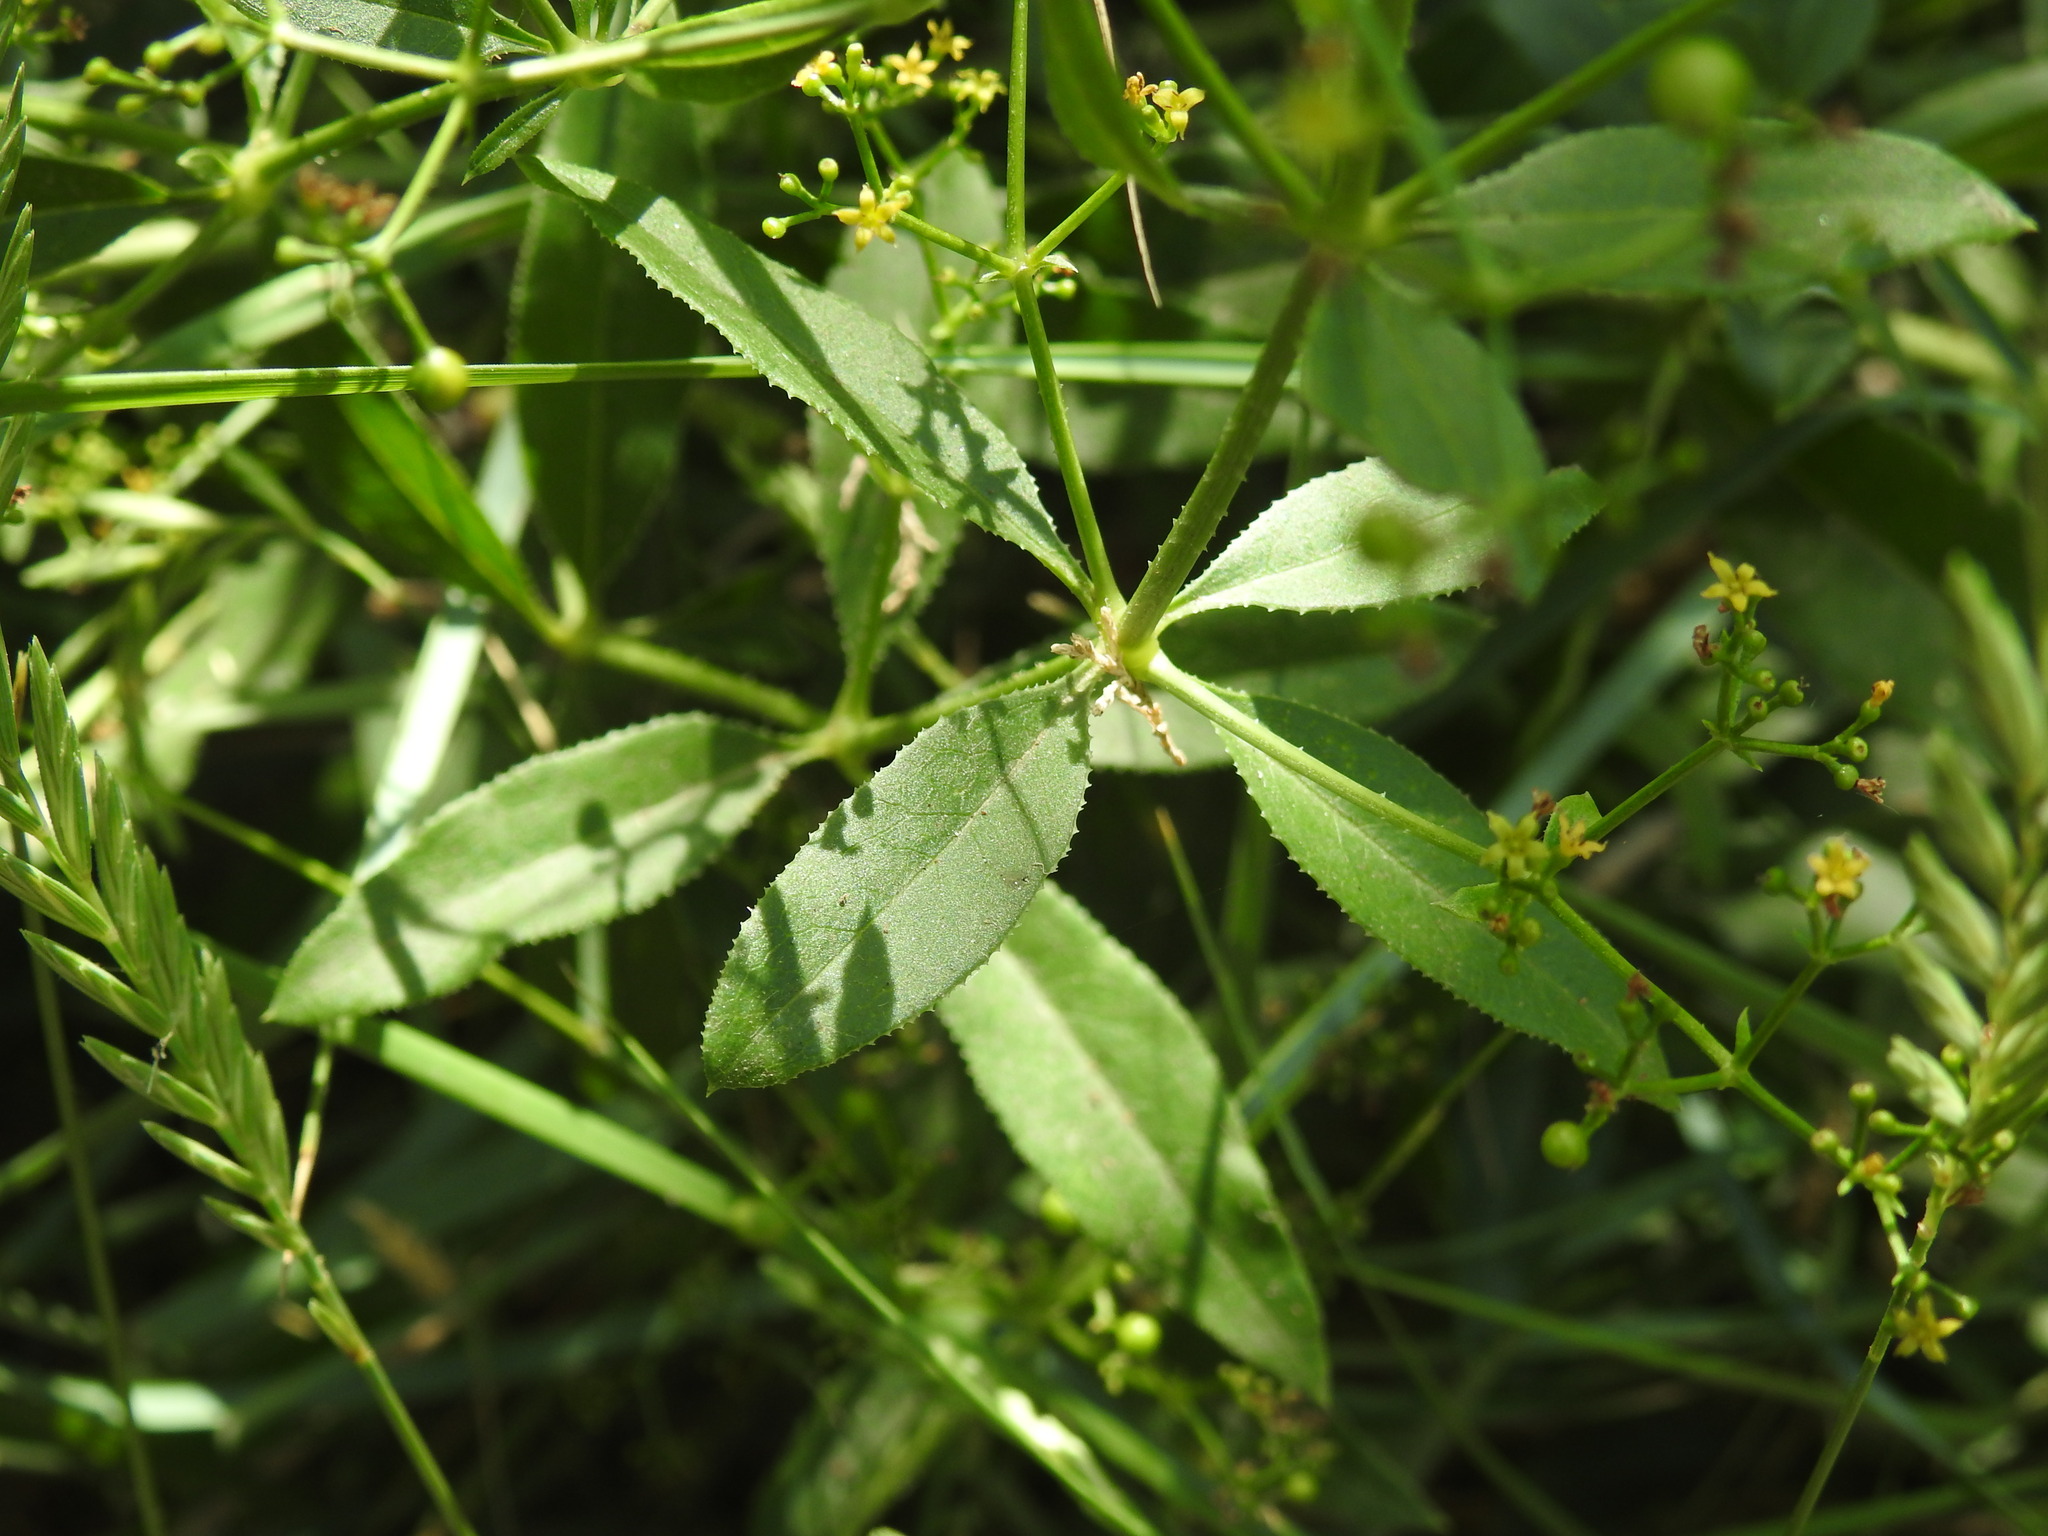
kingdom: Plantae
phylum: Tracheophyta
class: Magnoliopsida
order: Gentianales
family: Rubiaceae
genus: Rubia
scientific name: Rubia tinctorum
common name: Dyer's madder
